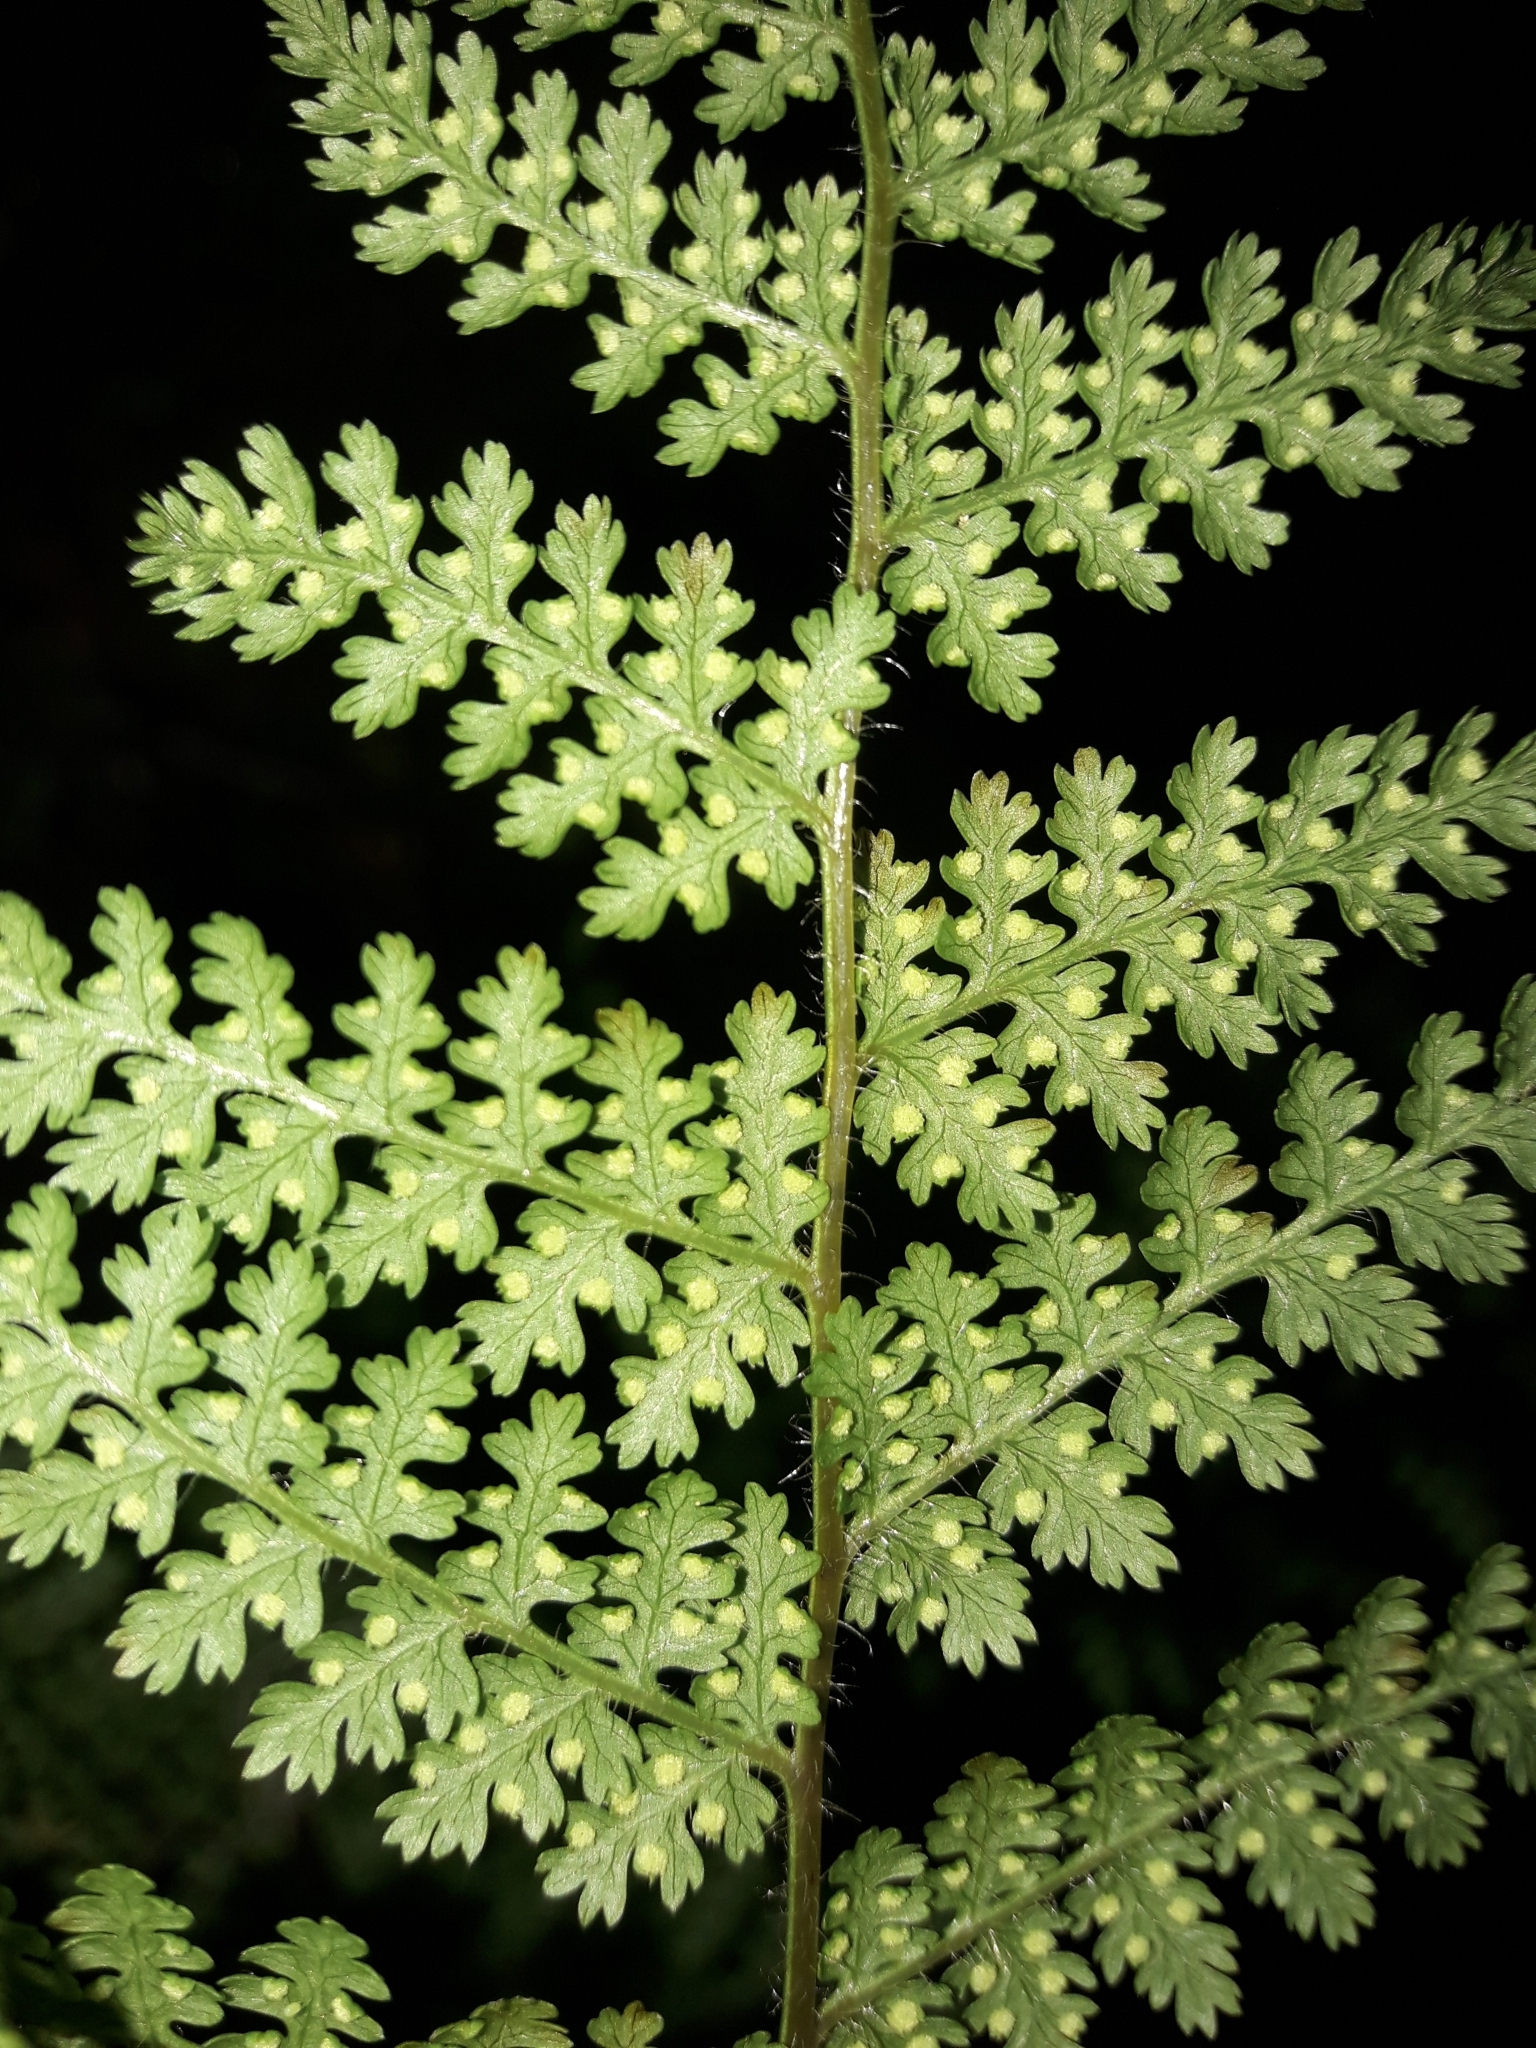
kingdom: Plantae
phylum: Tracheophyta
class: Polypodiopsida
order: Polypodiales
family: Dennstaedtiaceae
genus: Hypolepis
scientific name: Hypolepis millefolium
